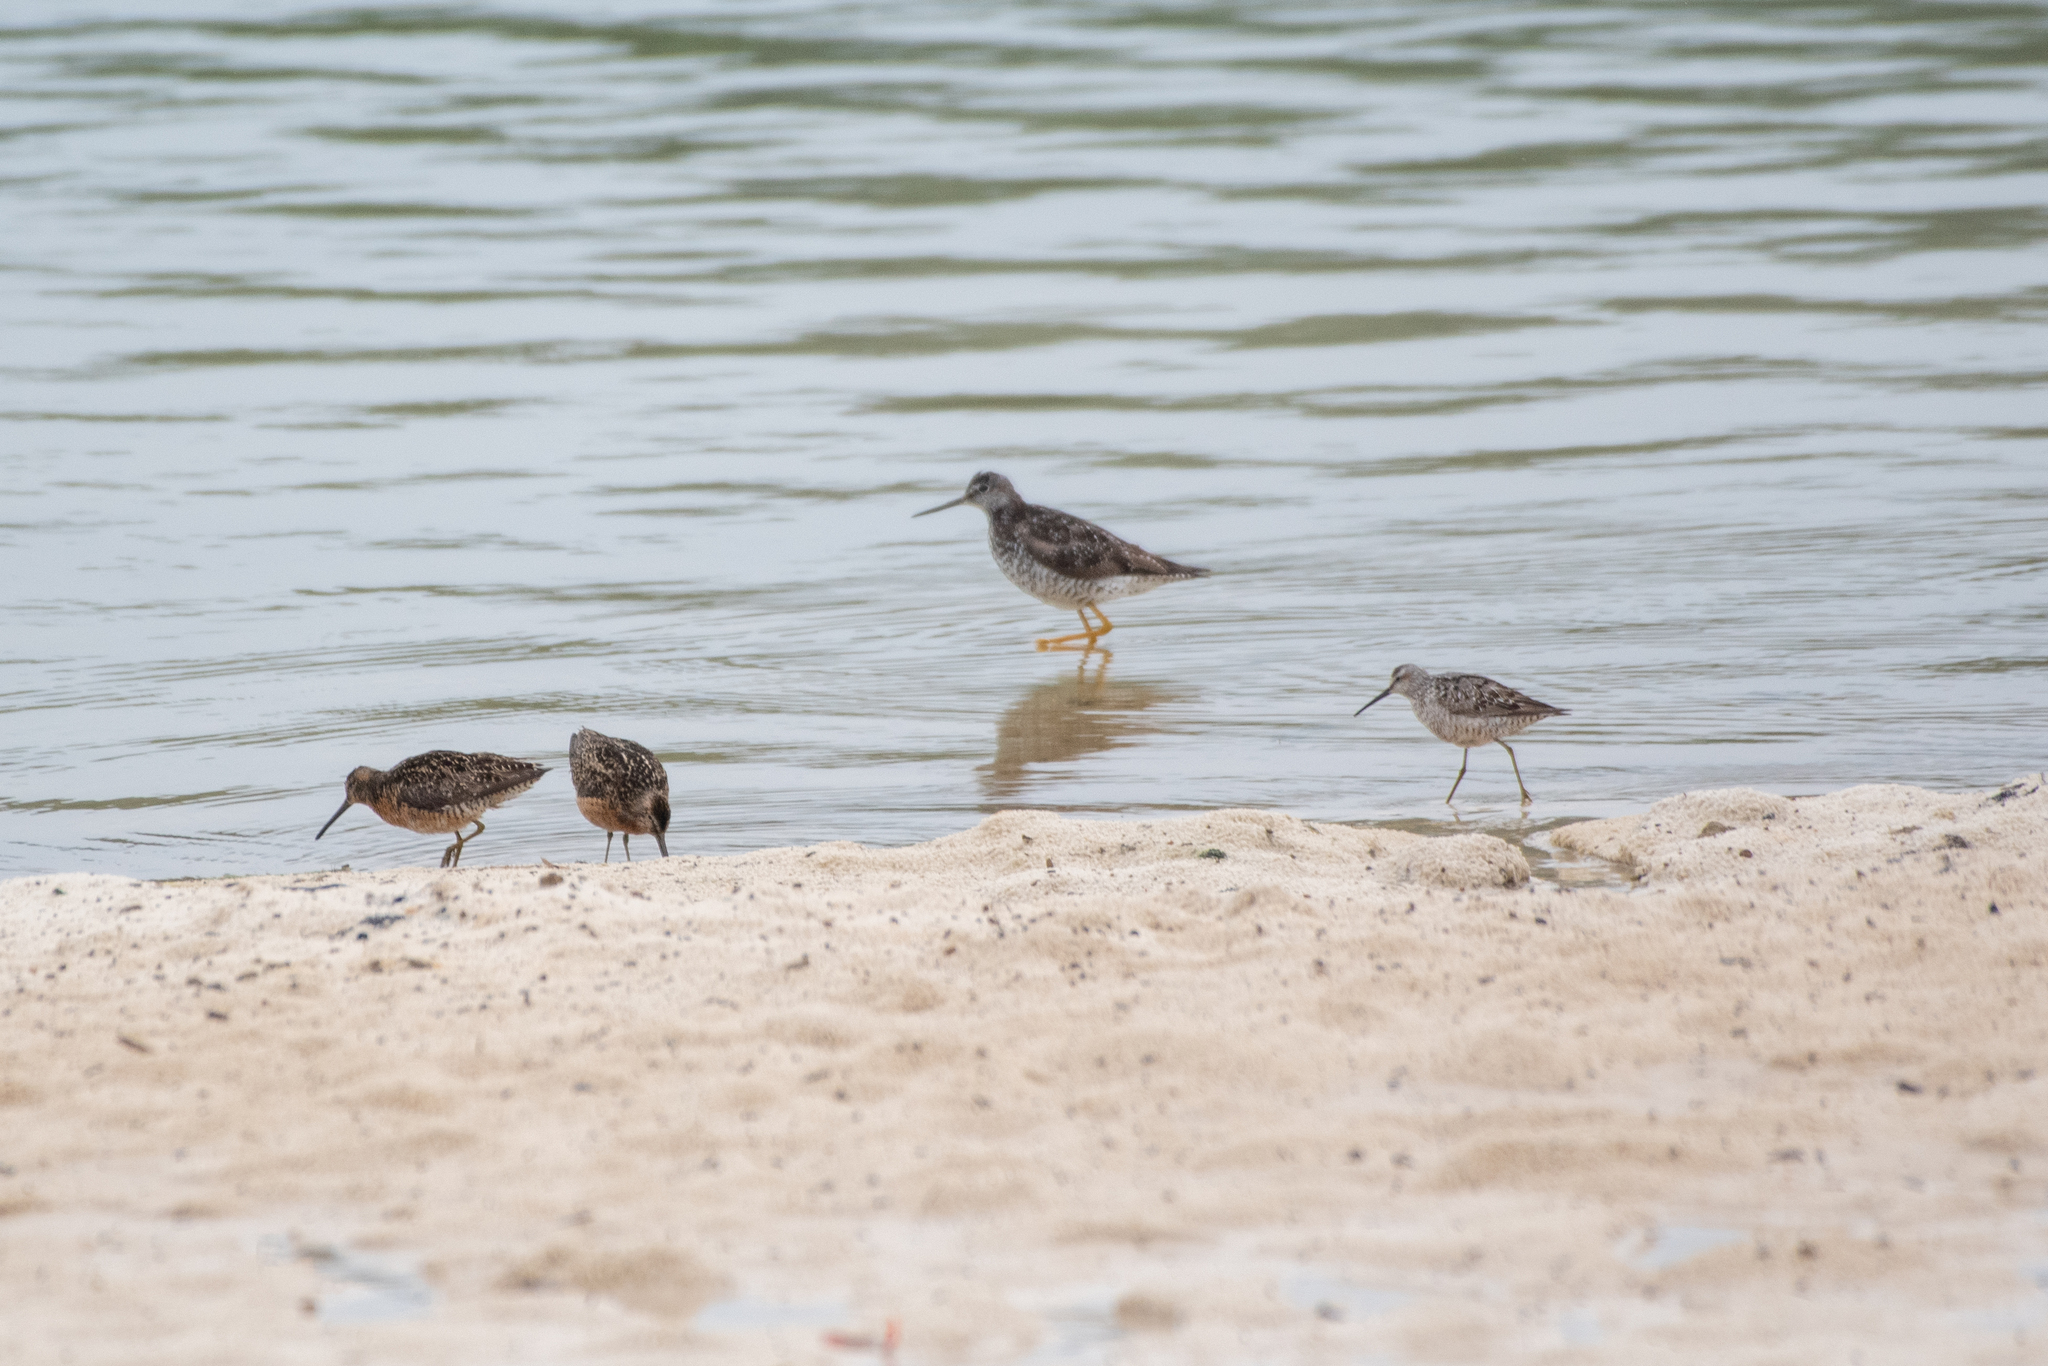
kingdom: Animalia
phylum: Chordata
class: Aves
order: Charadriiformes
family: Scolopacidae
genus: Tringa
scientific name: Tringa melanoleuca
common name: Greater yellowlegs
